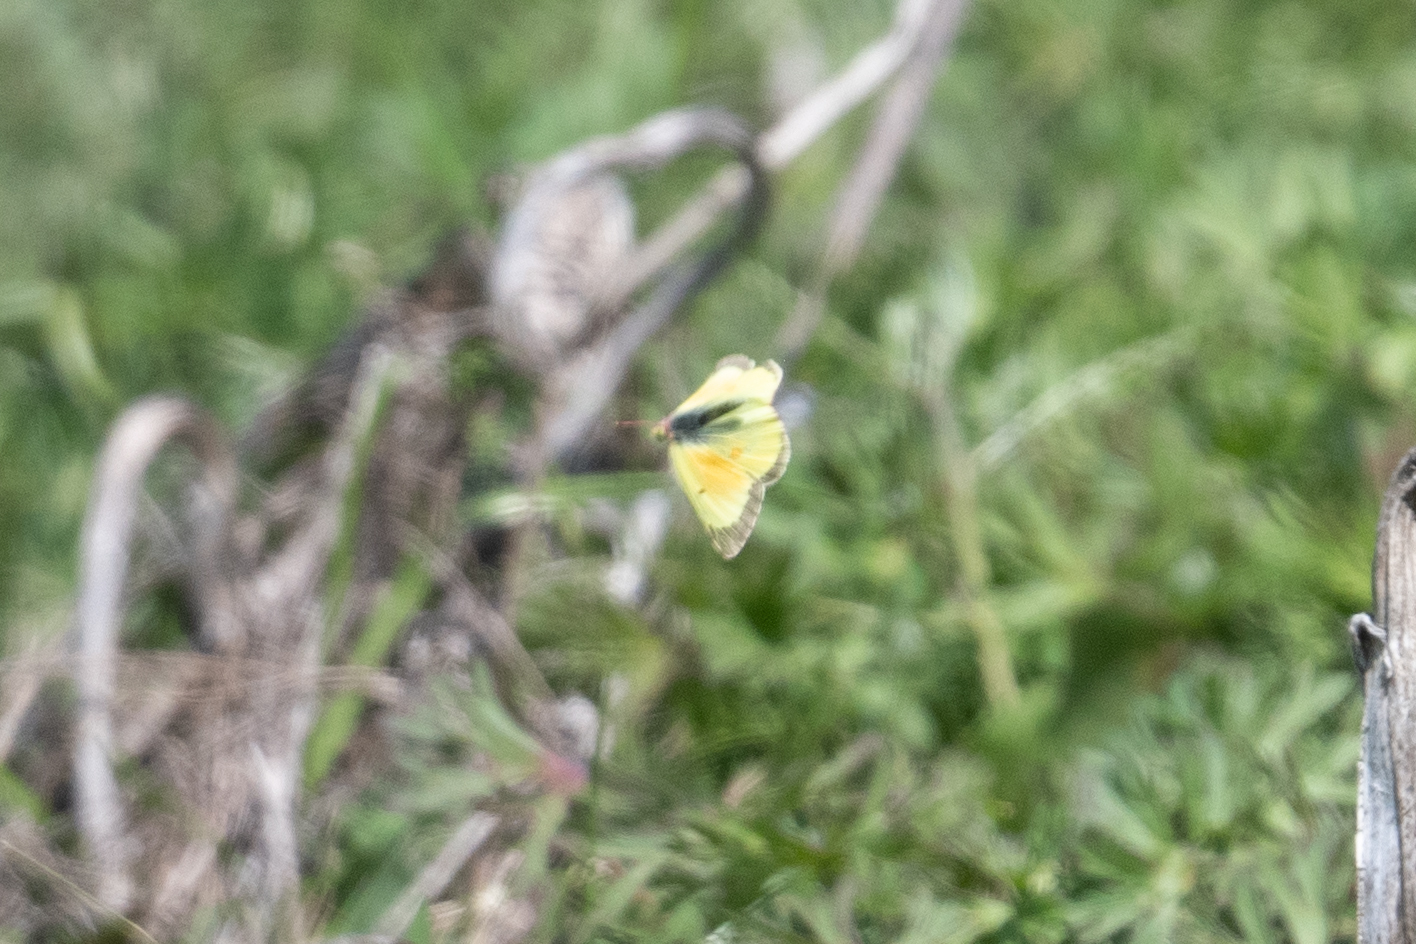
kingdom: Animalia
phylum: Arthropoda
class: Insecta
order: Lepidoptera
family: Pieridae
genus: Colias
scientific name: Colias eurytheme
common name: Alfalfa butterfly
